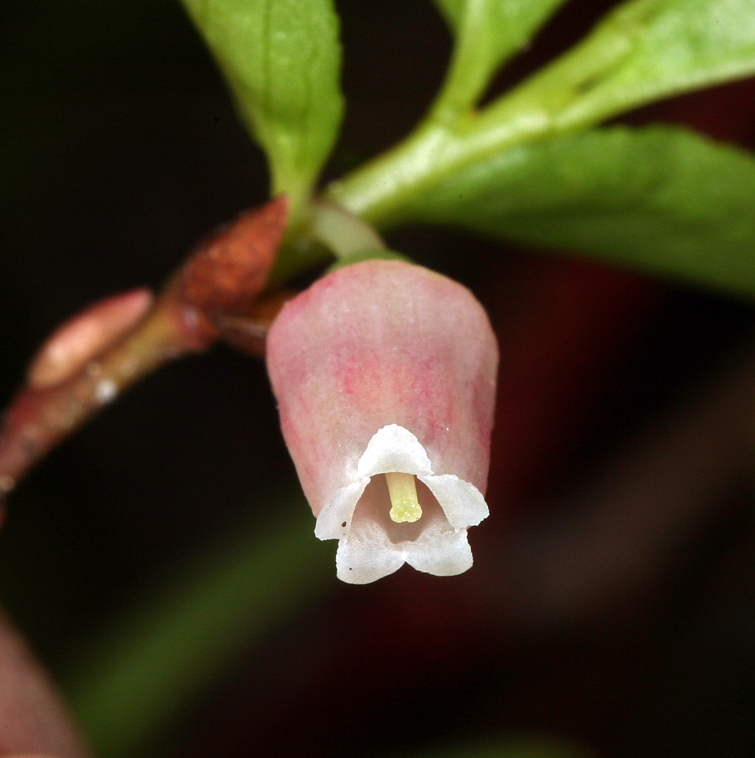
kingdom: Plantae
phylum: Tracheophyta
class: Magnoliopsida
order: Ericales
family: Ericaceae
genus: Vaccinium
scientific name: Vaccinium cespitosum
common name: Dwarf bilberry
